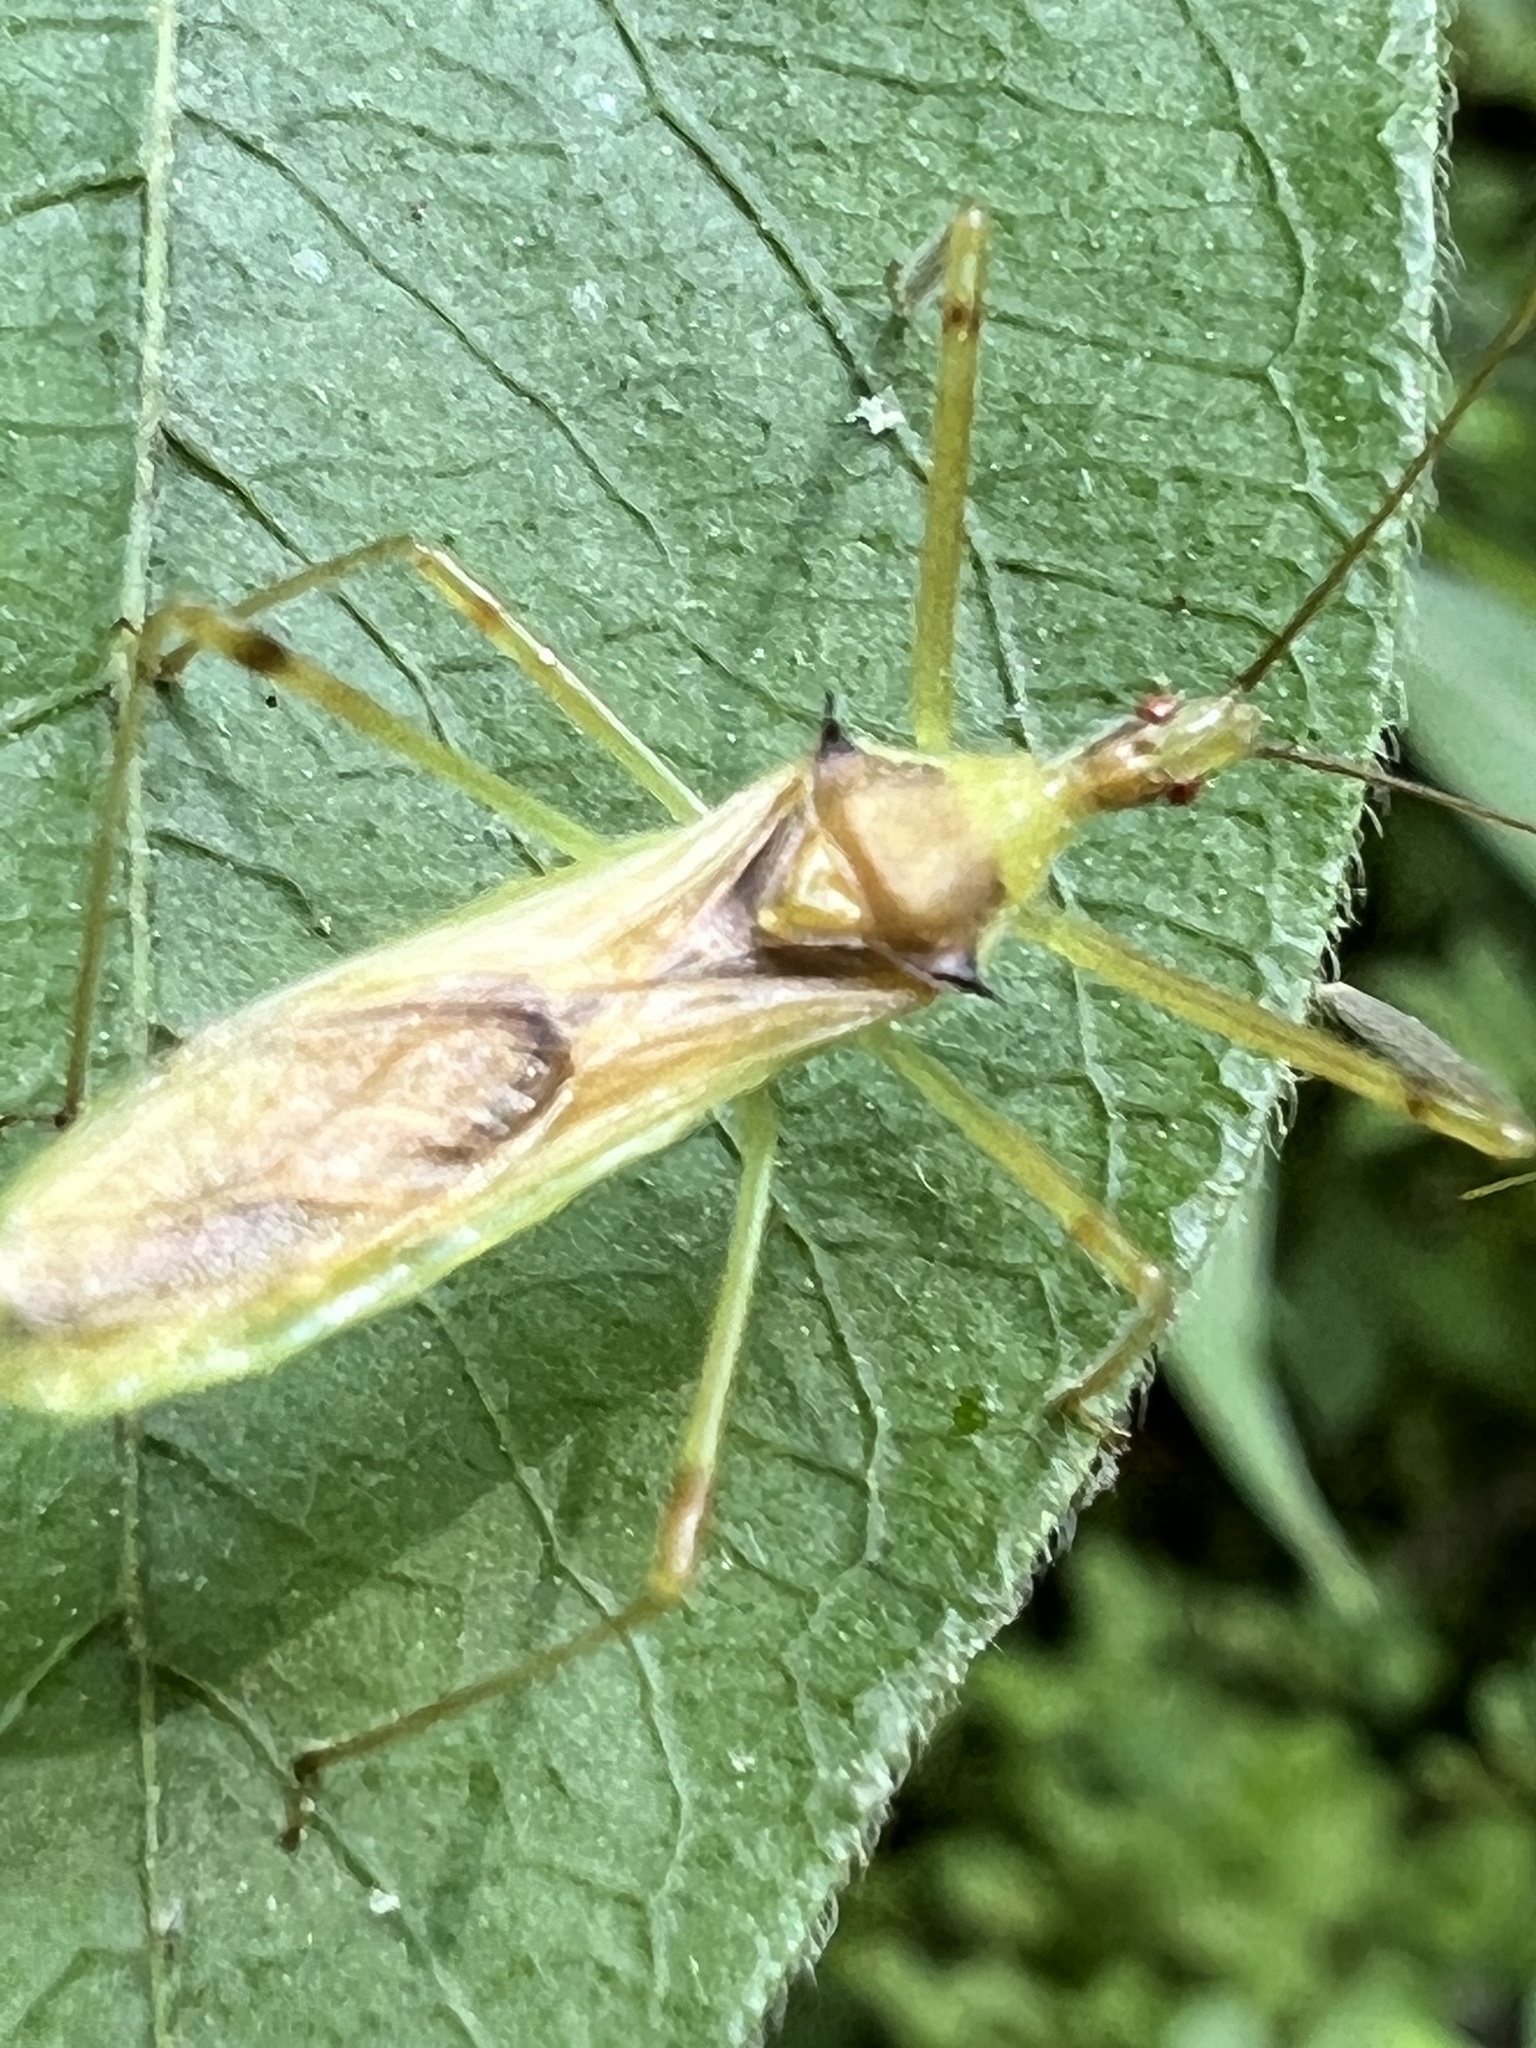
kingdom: Animalia
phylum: Arthropoda
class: Insecta
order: Hemiptera
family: Reduviidae
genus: Zelus
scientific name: Zelus luridus
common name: Pale green assassin bug
